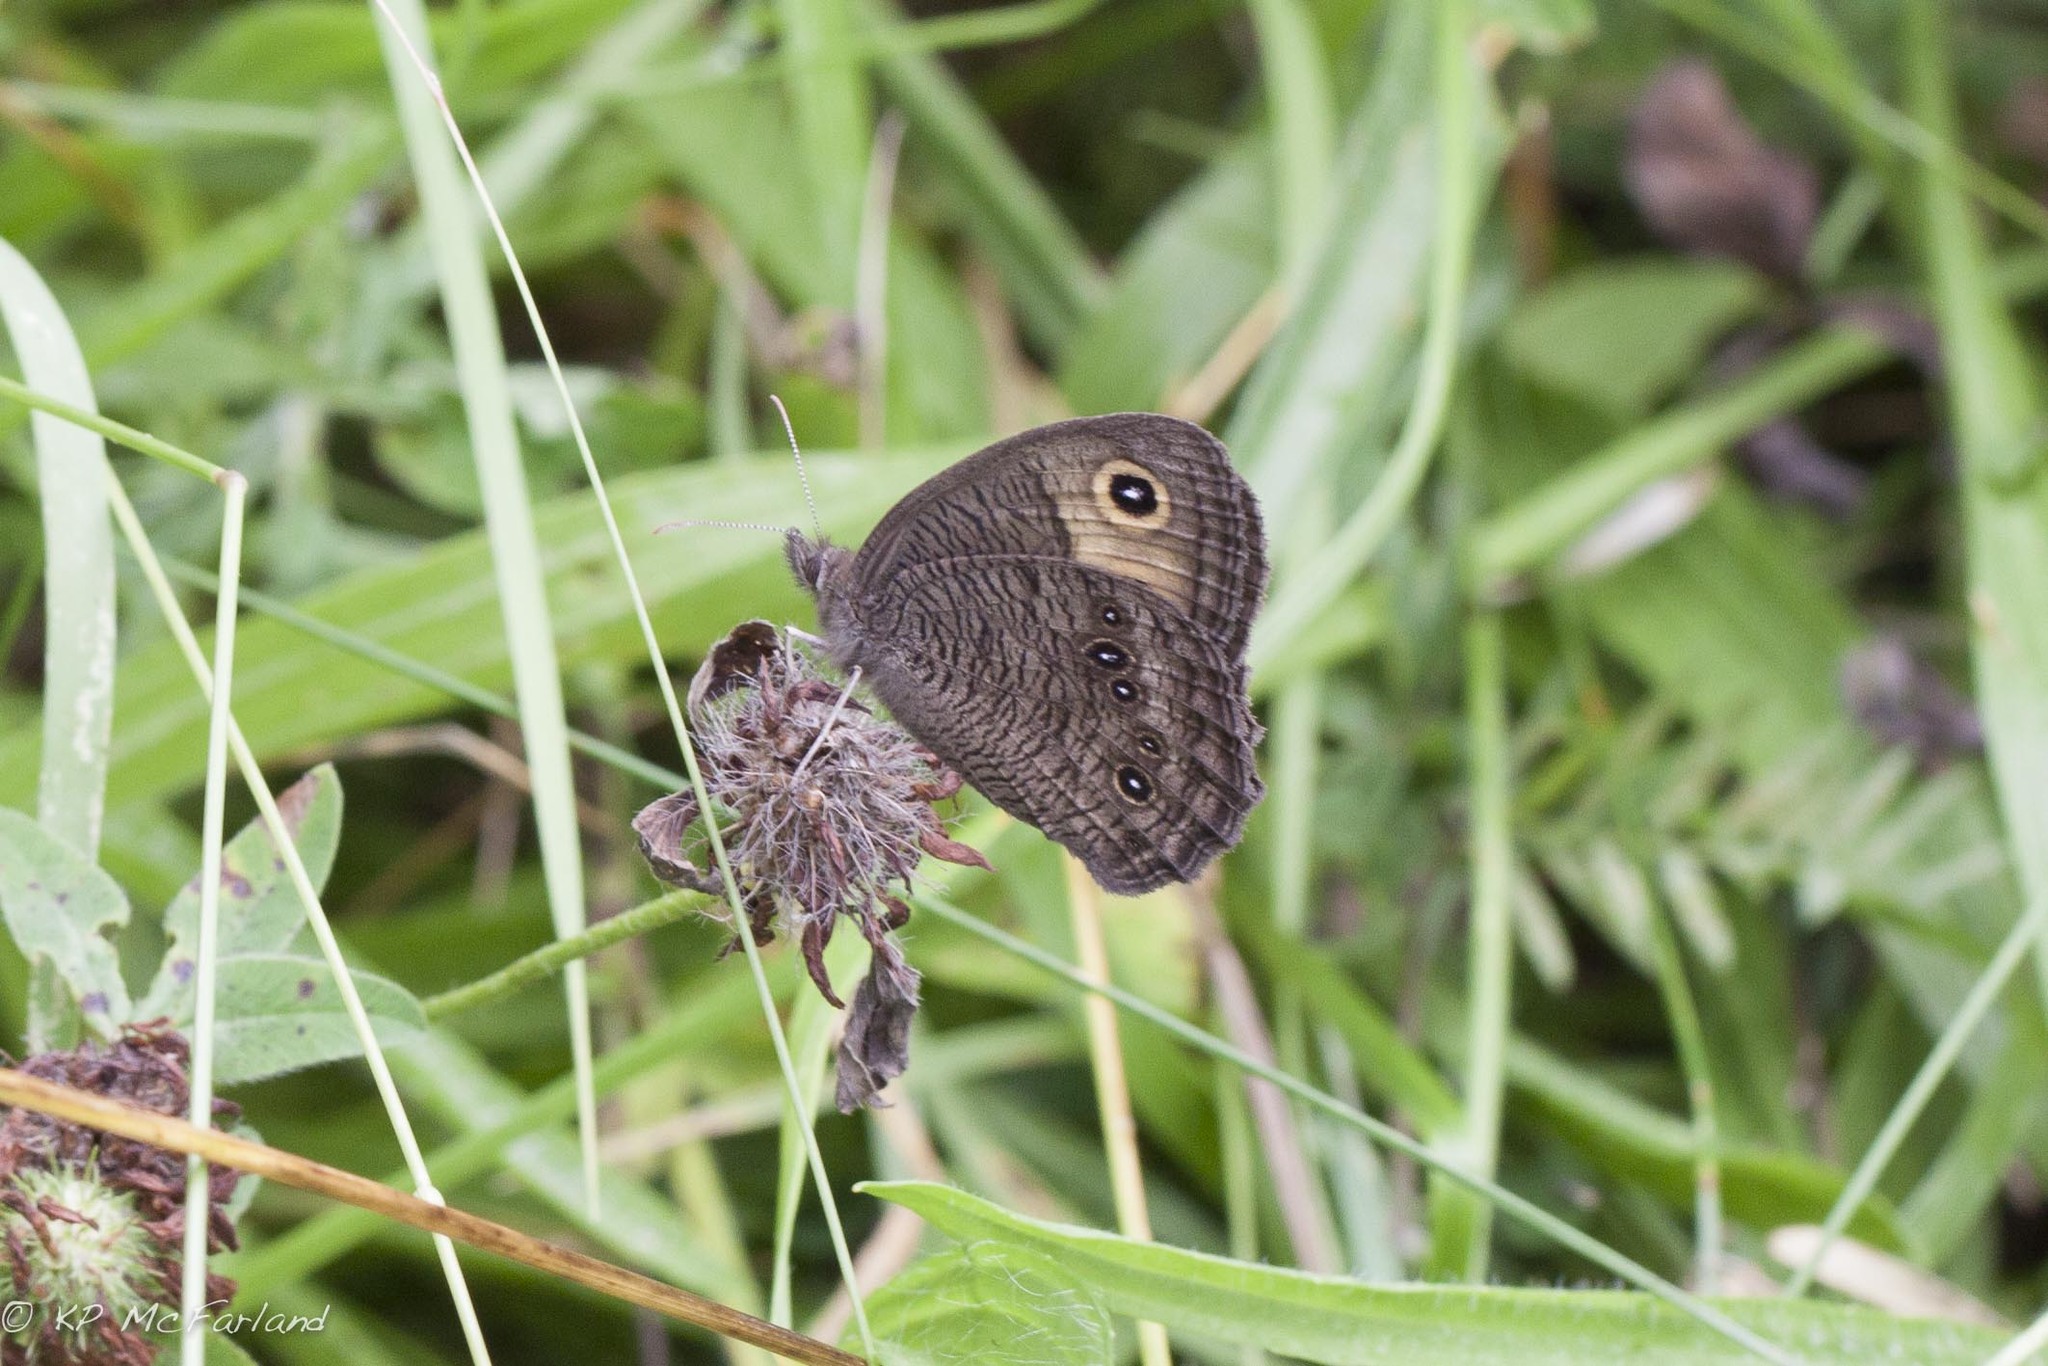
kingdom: Animalia
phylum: Arthropoda
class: Insecta
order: Lepidoptera
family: Nymphalidae
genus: Cercyonis
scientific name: Cercyonis pegala
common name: Common wood-nymph
